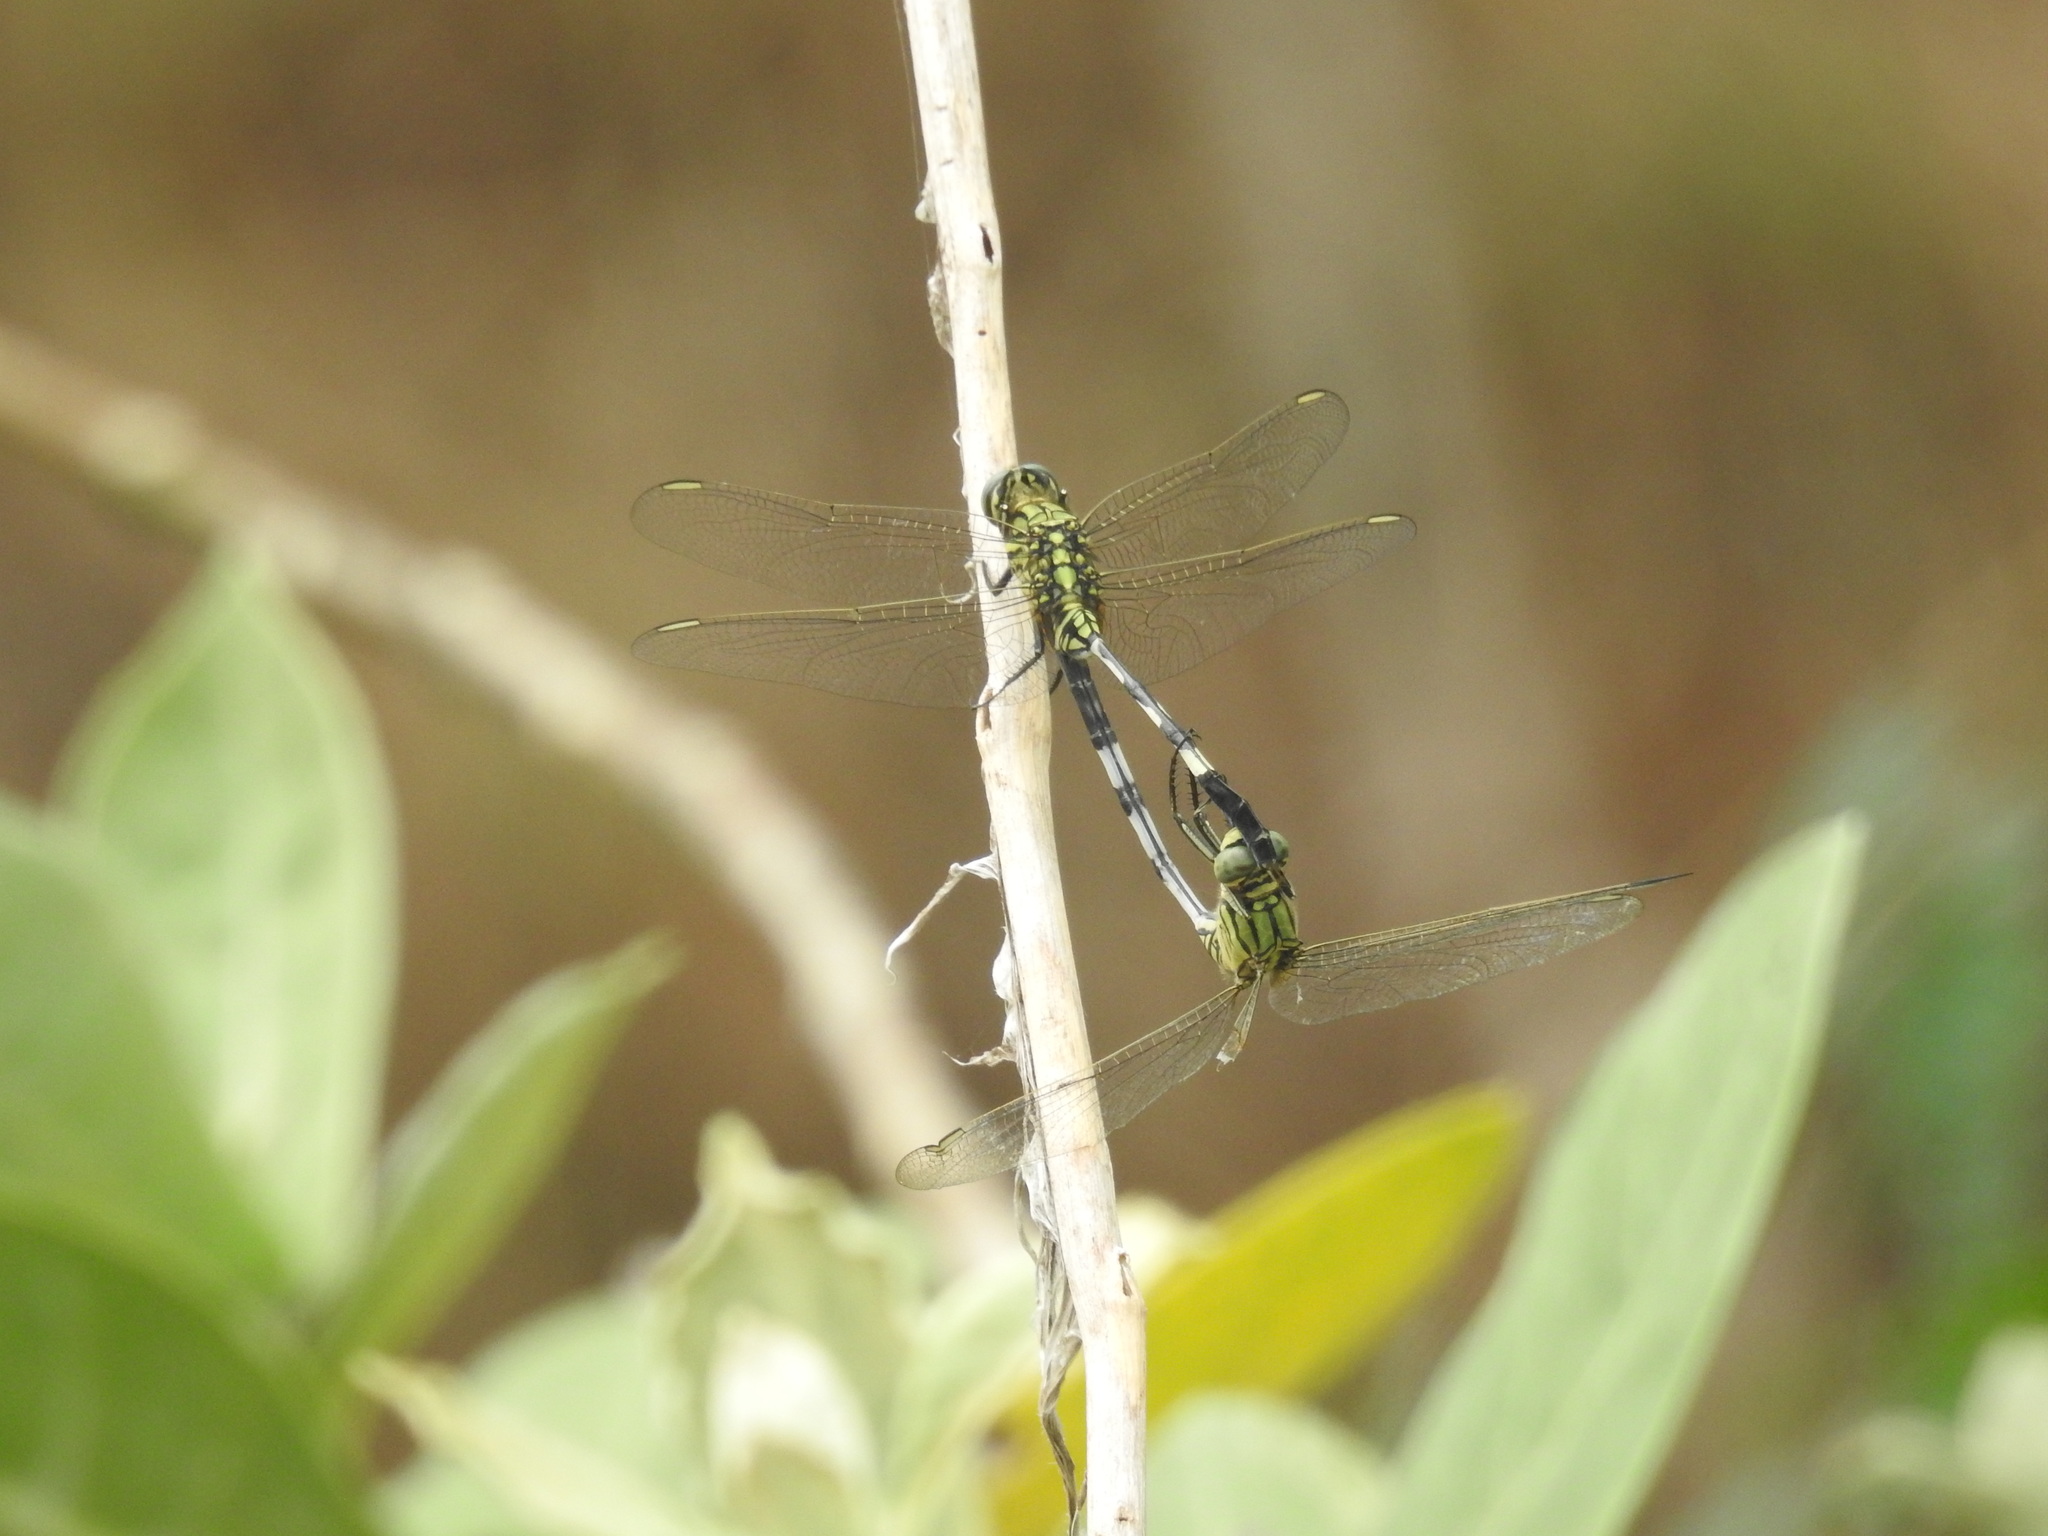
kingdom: Animalia
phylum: Arthropoda
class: Insecta
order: Odonata
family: Libellulidae
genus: Orthetrum
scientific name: Orthetrum sabina
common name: Slender skimmer
